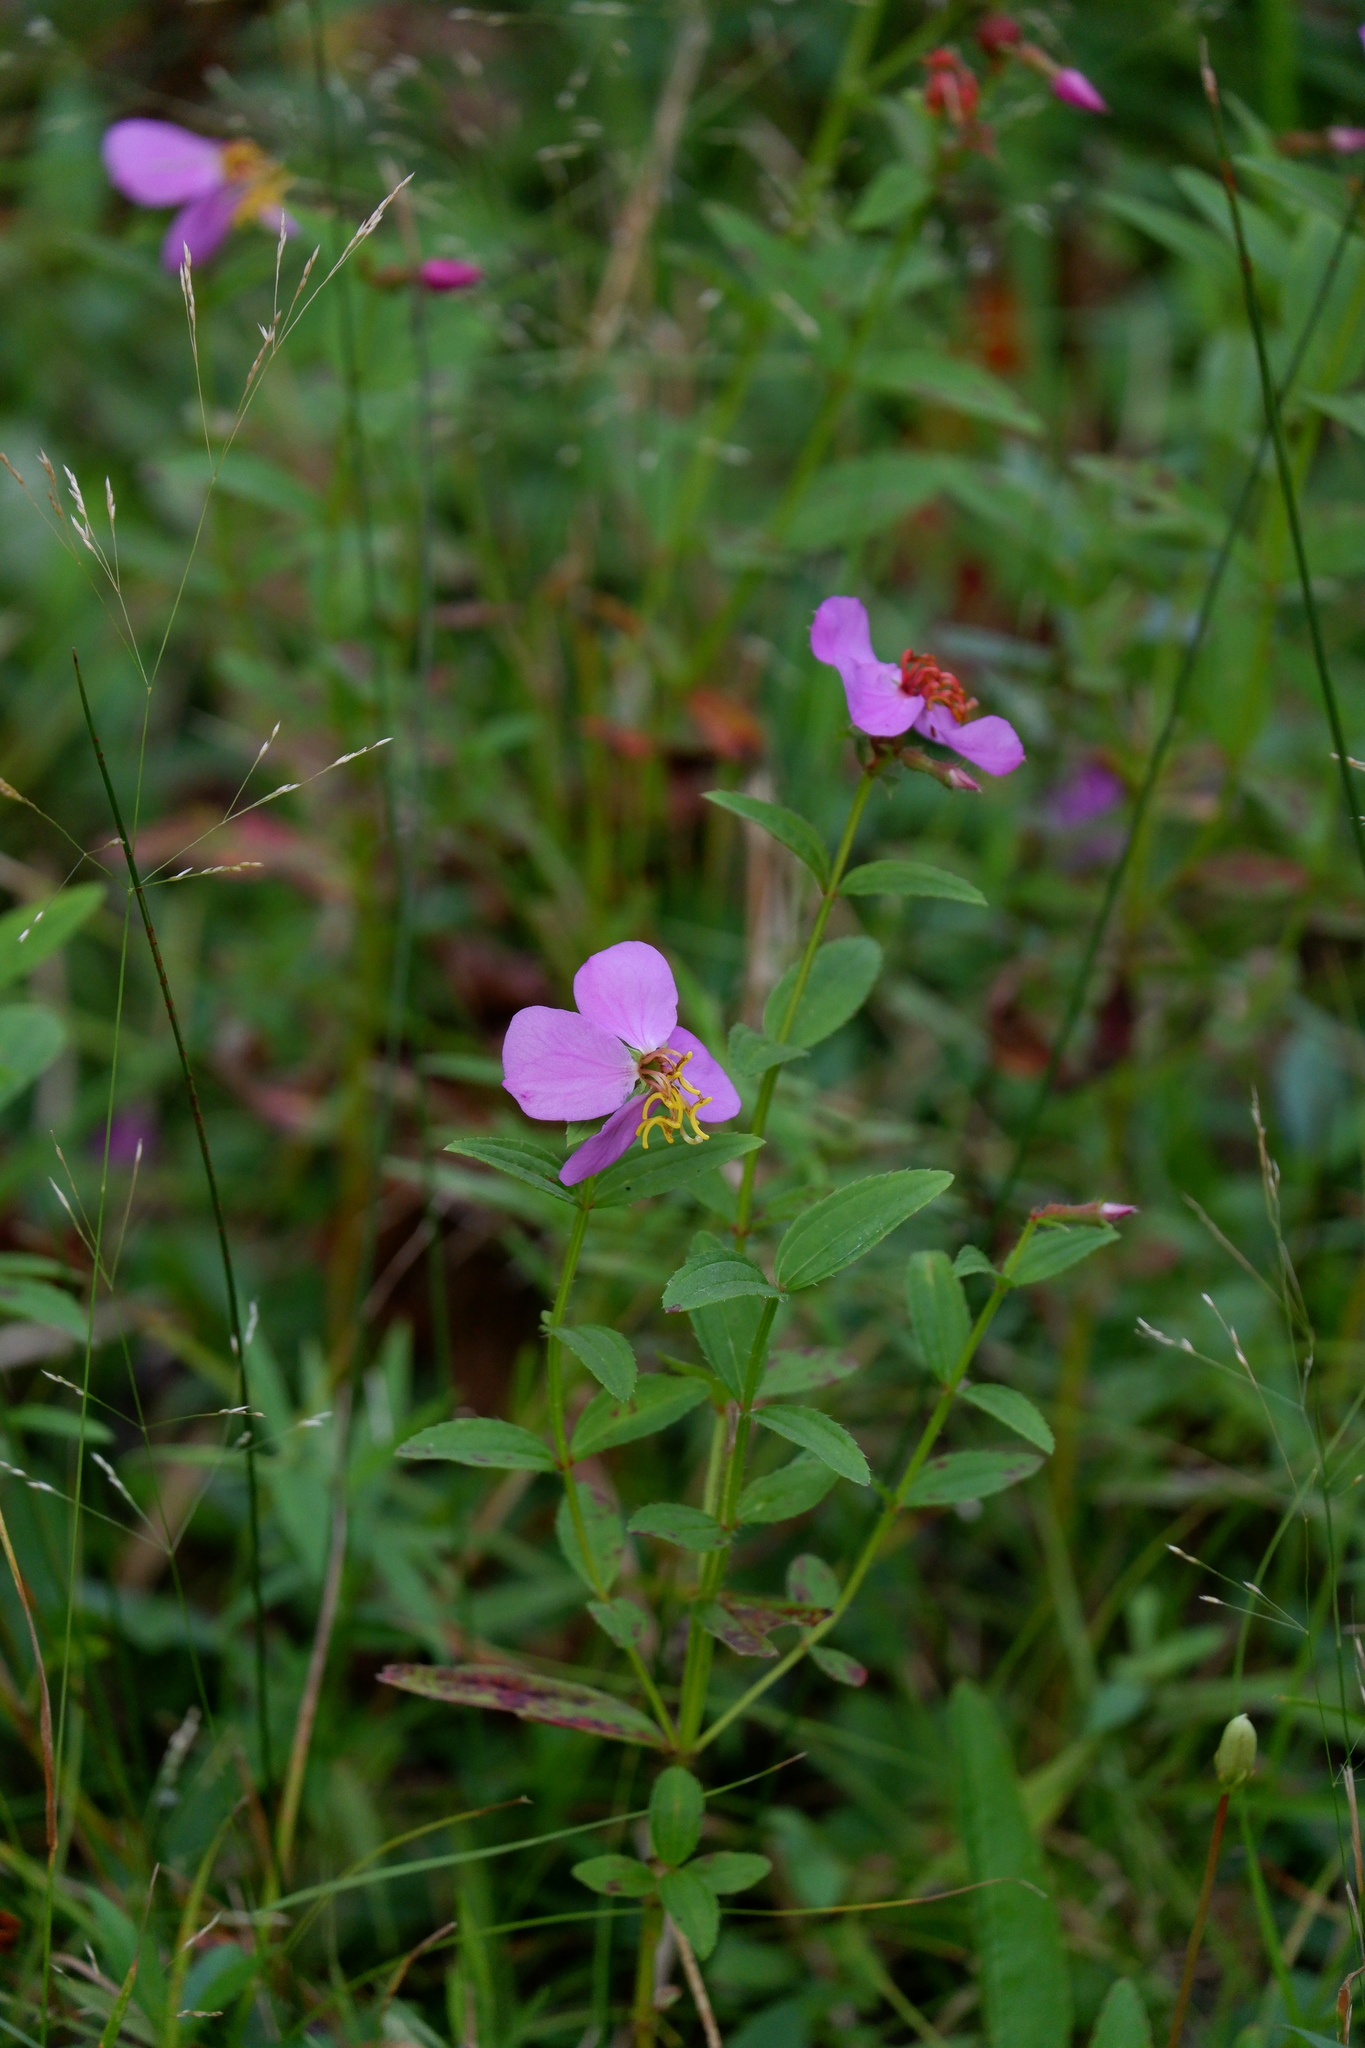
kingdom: Plantae
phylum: Tracheophyta
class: Magnoliopsida
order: Myrtales
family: Melastomataceae
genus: Rhexia
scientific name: Rhexia virginica
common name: Common meadow beauty
